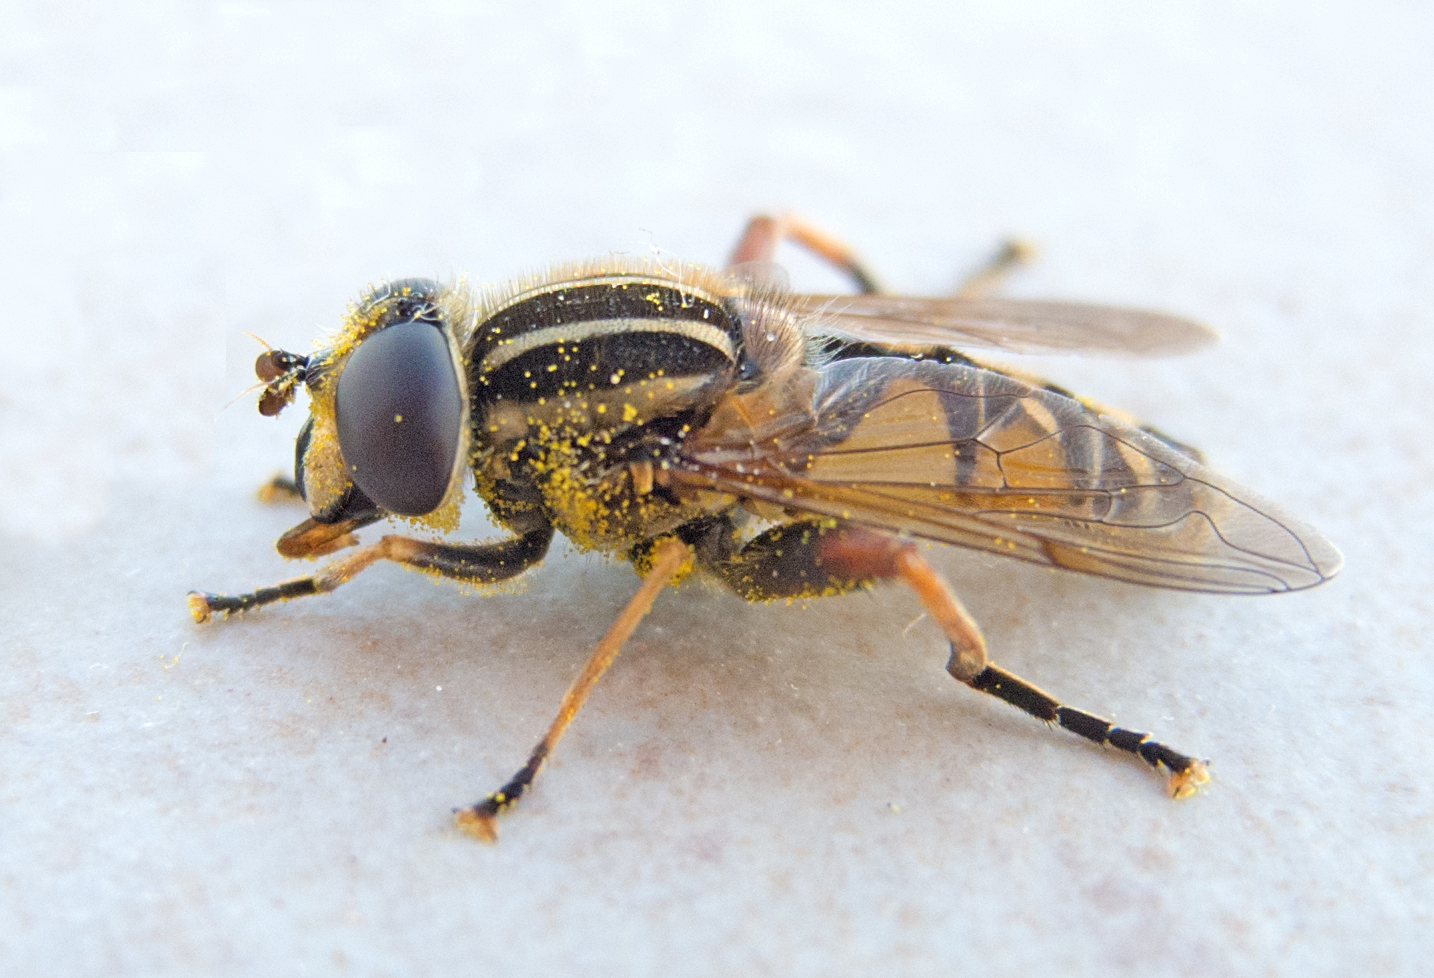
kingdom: Animalia
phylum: Arthropoda
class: Insecta
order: Diptera
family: Syrphidae
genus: Helophilus
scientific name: Helophilus pendulus
